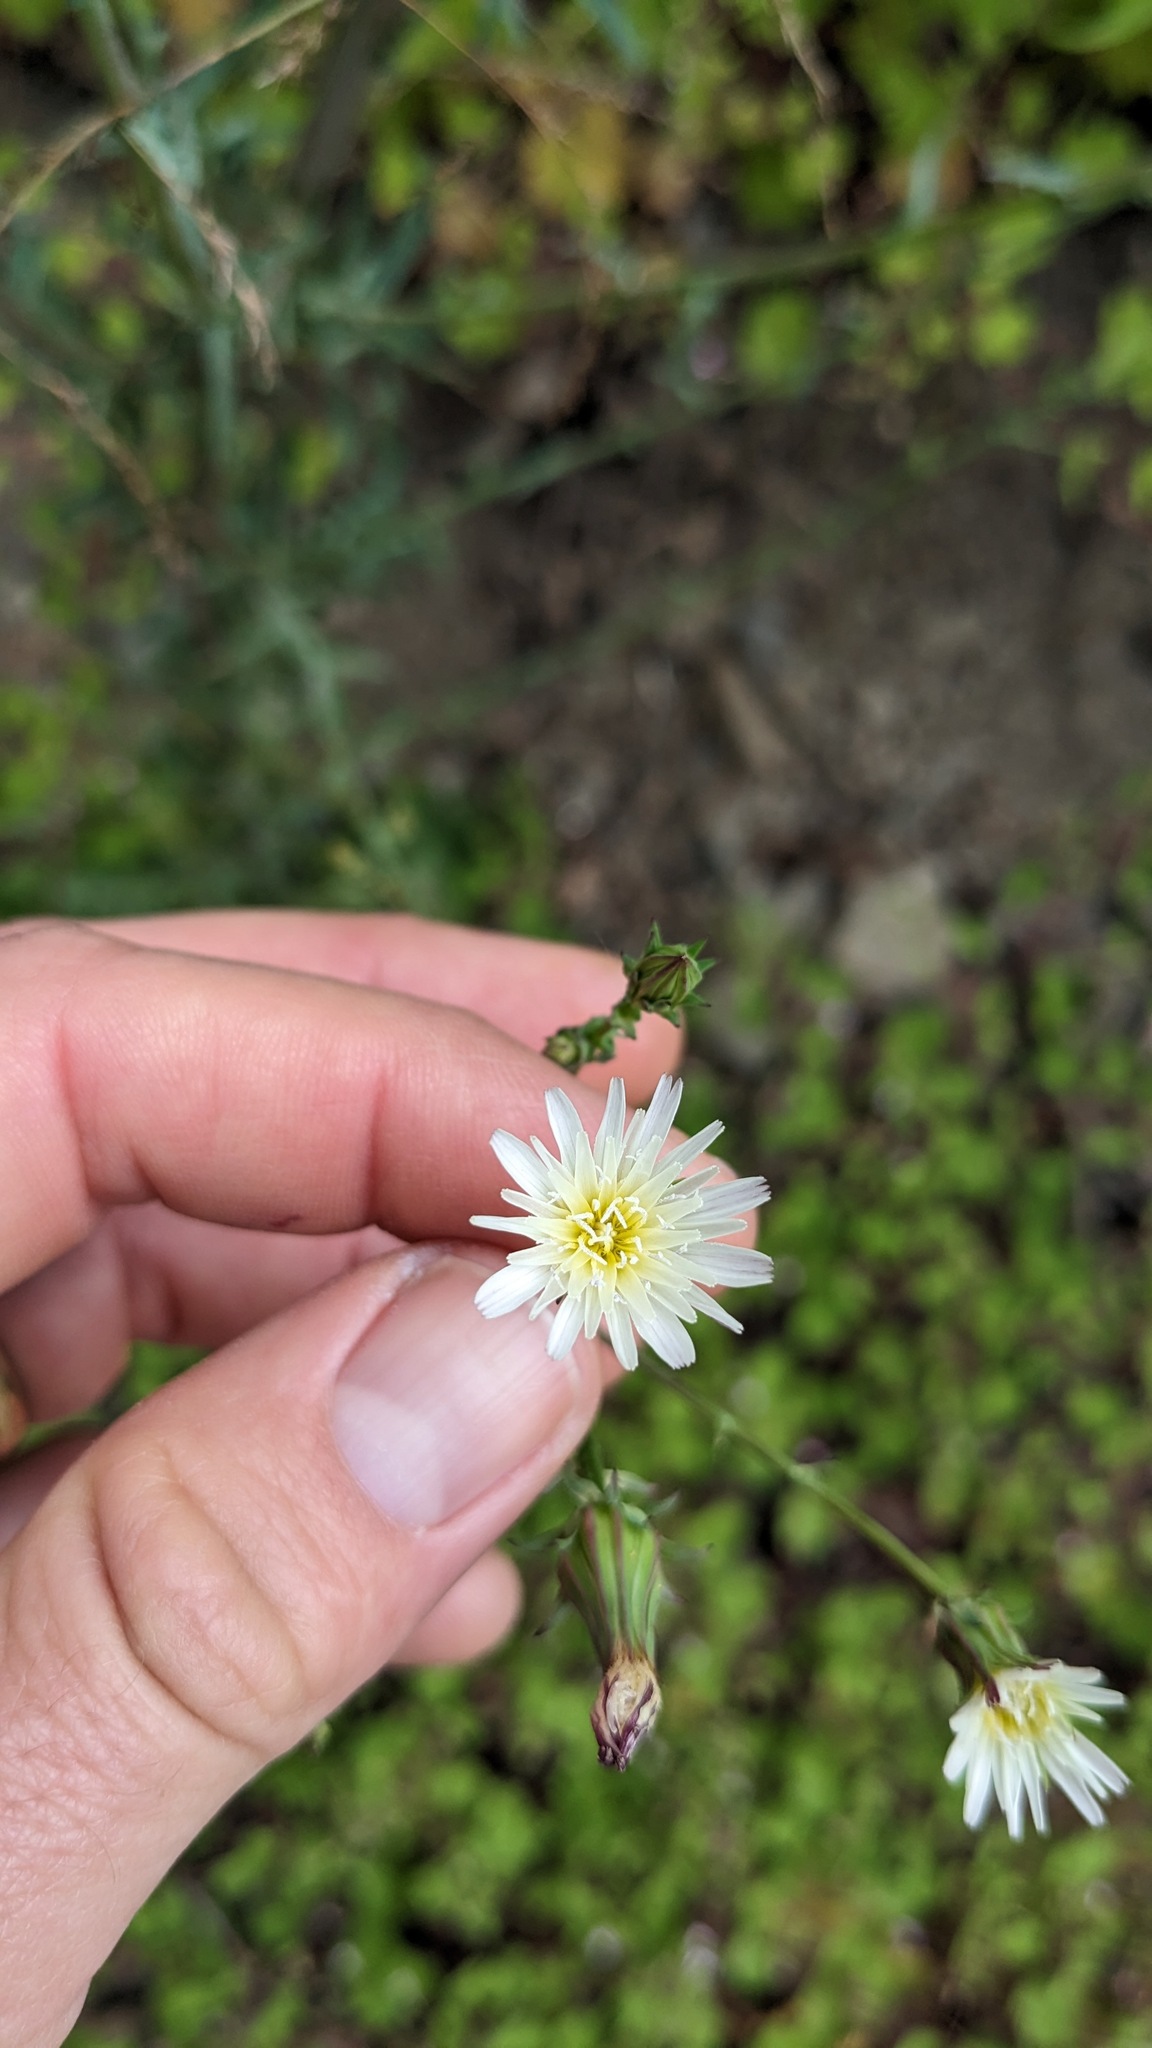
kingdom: Plantae
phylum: Tracheophyta
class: Magnoliopsida
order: Asterales
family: Asteraceae
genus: Rafinesquia
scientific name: Rafinesquia californica
